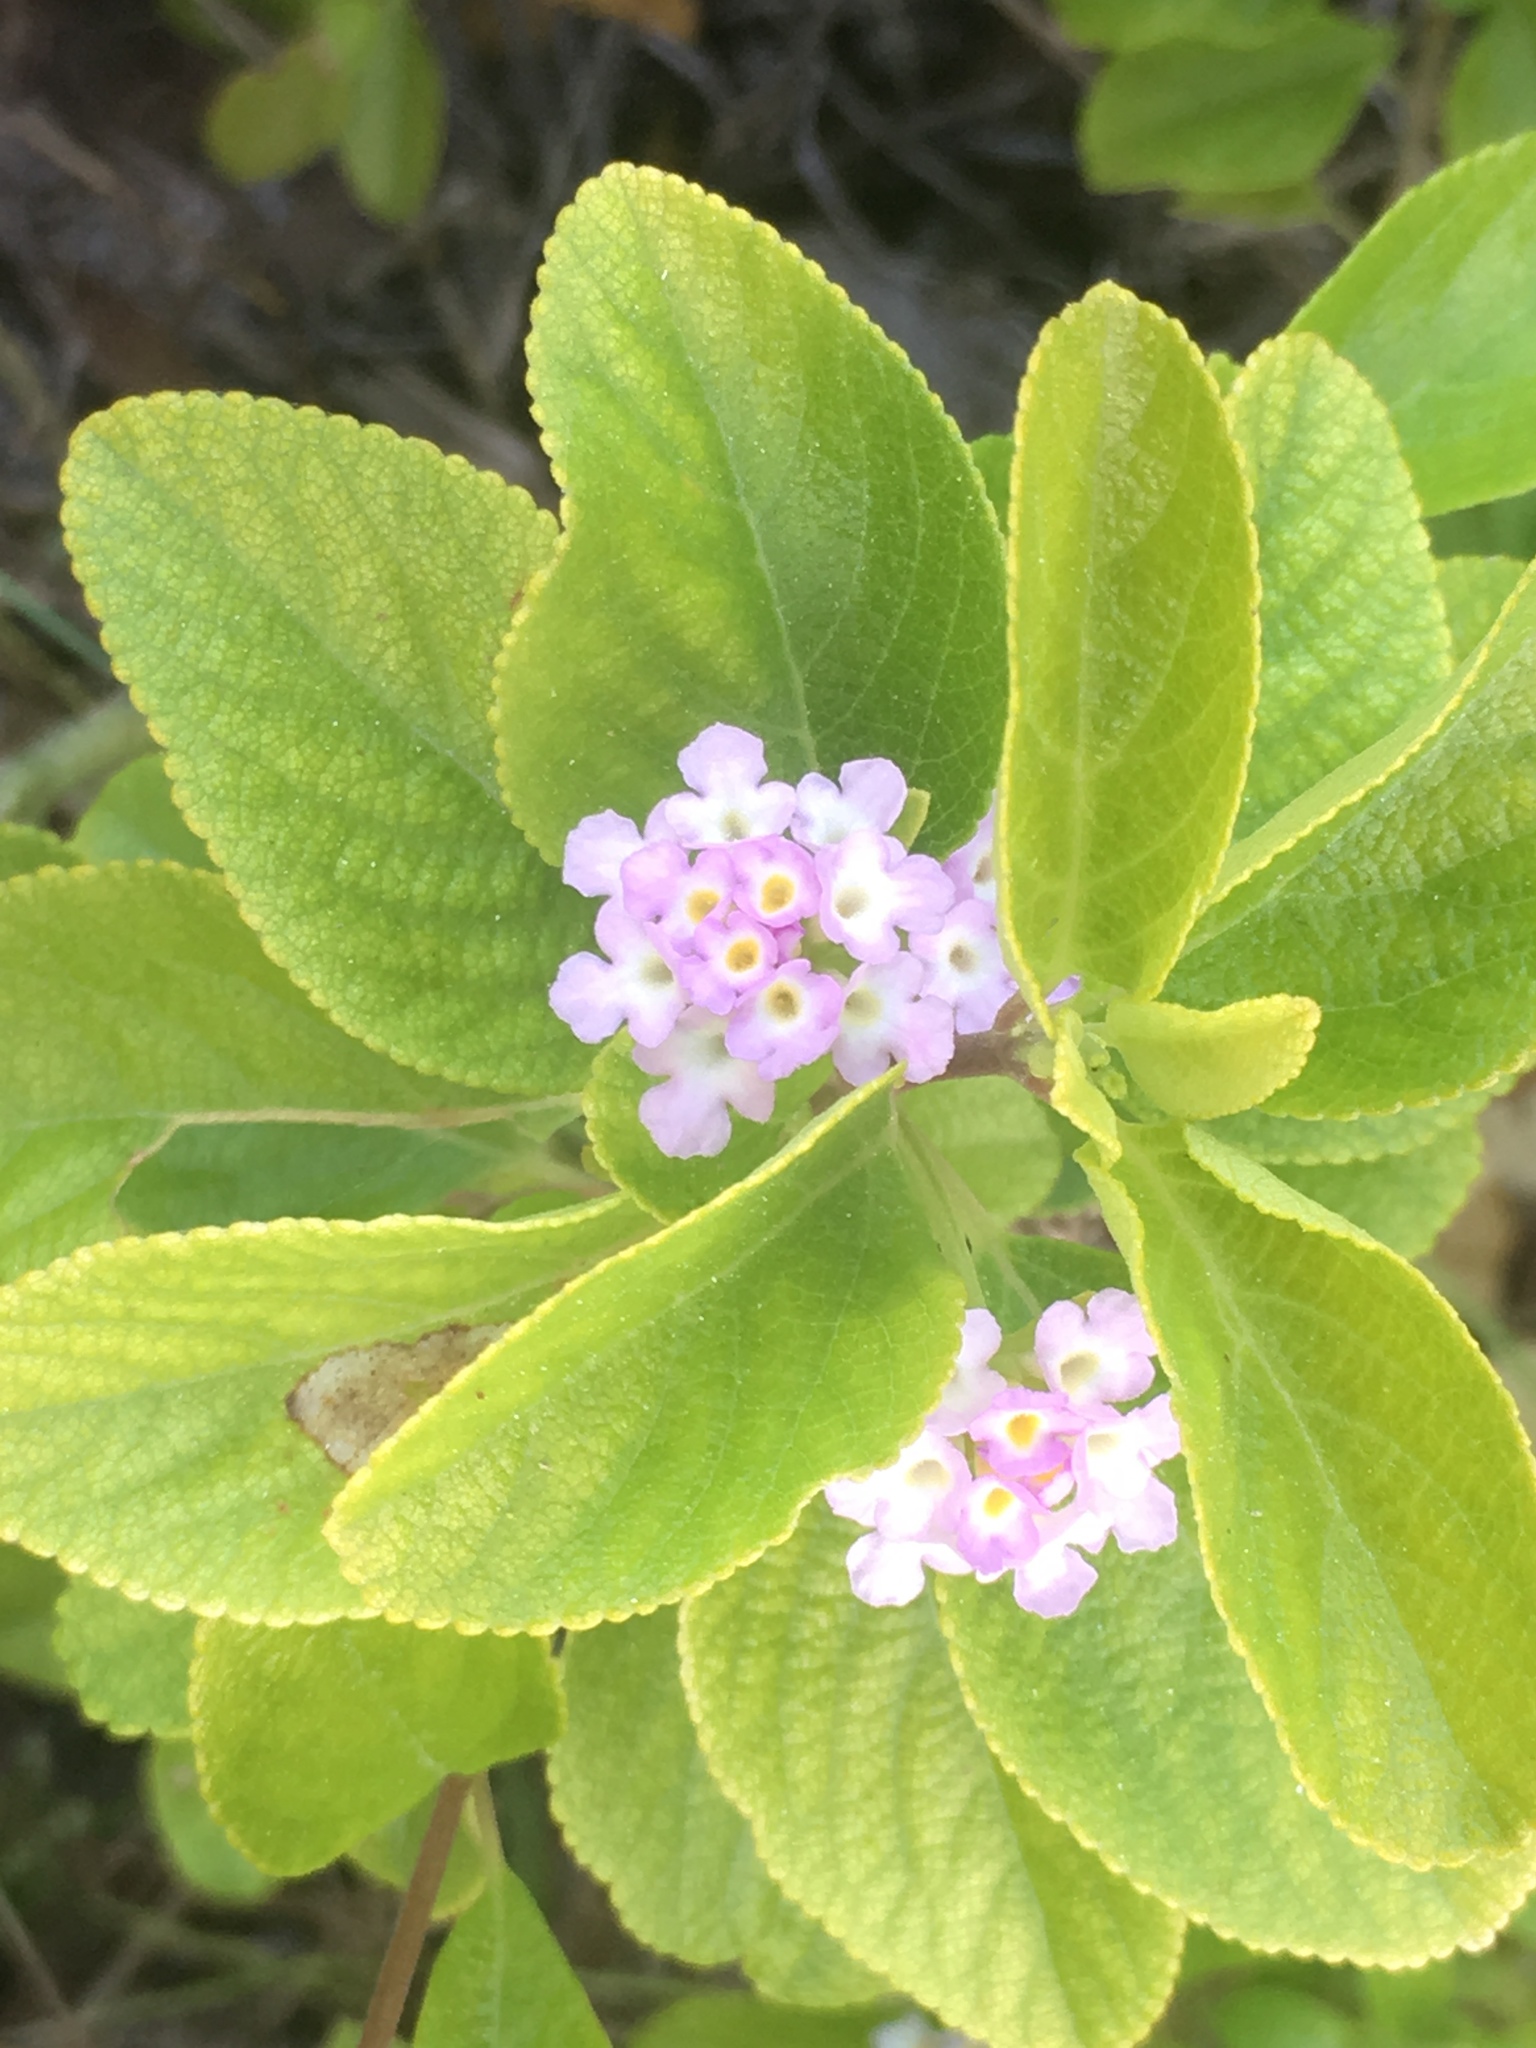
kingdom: Plantae
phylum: Tracheophyta
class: Magnoliopsida
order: Lamiales
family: Verbenaceae
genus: Lantana
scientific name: Lantana involucrata
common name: Black sage
